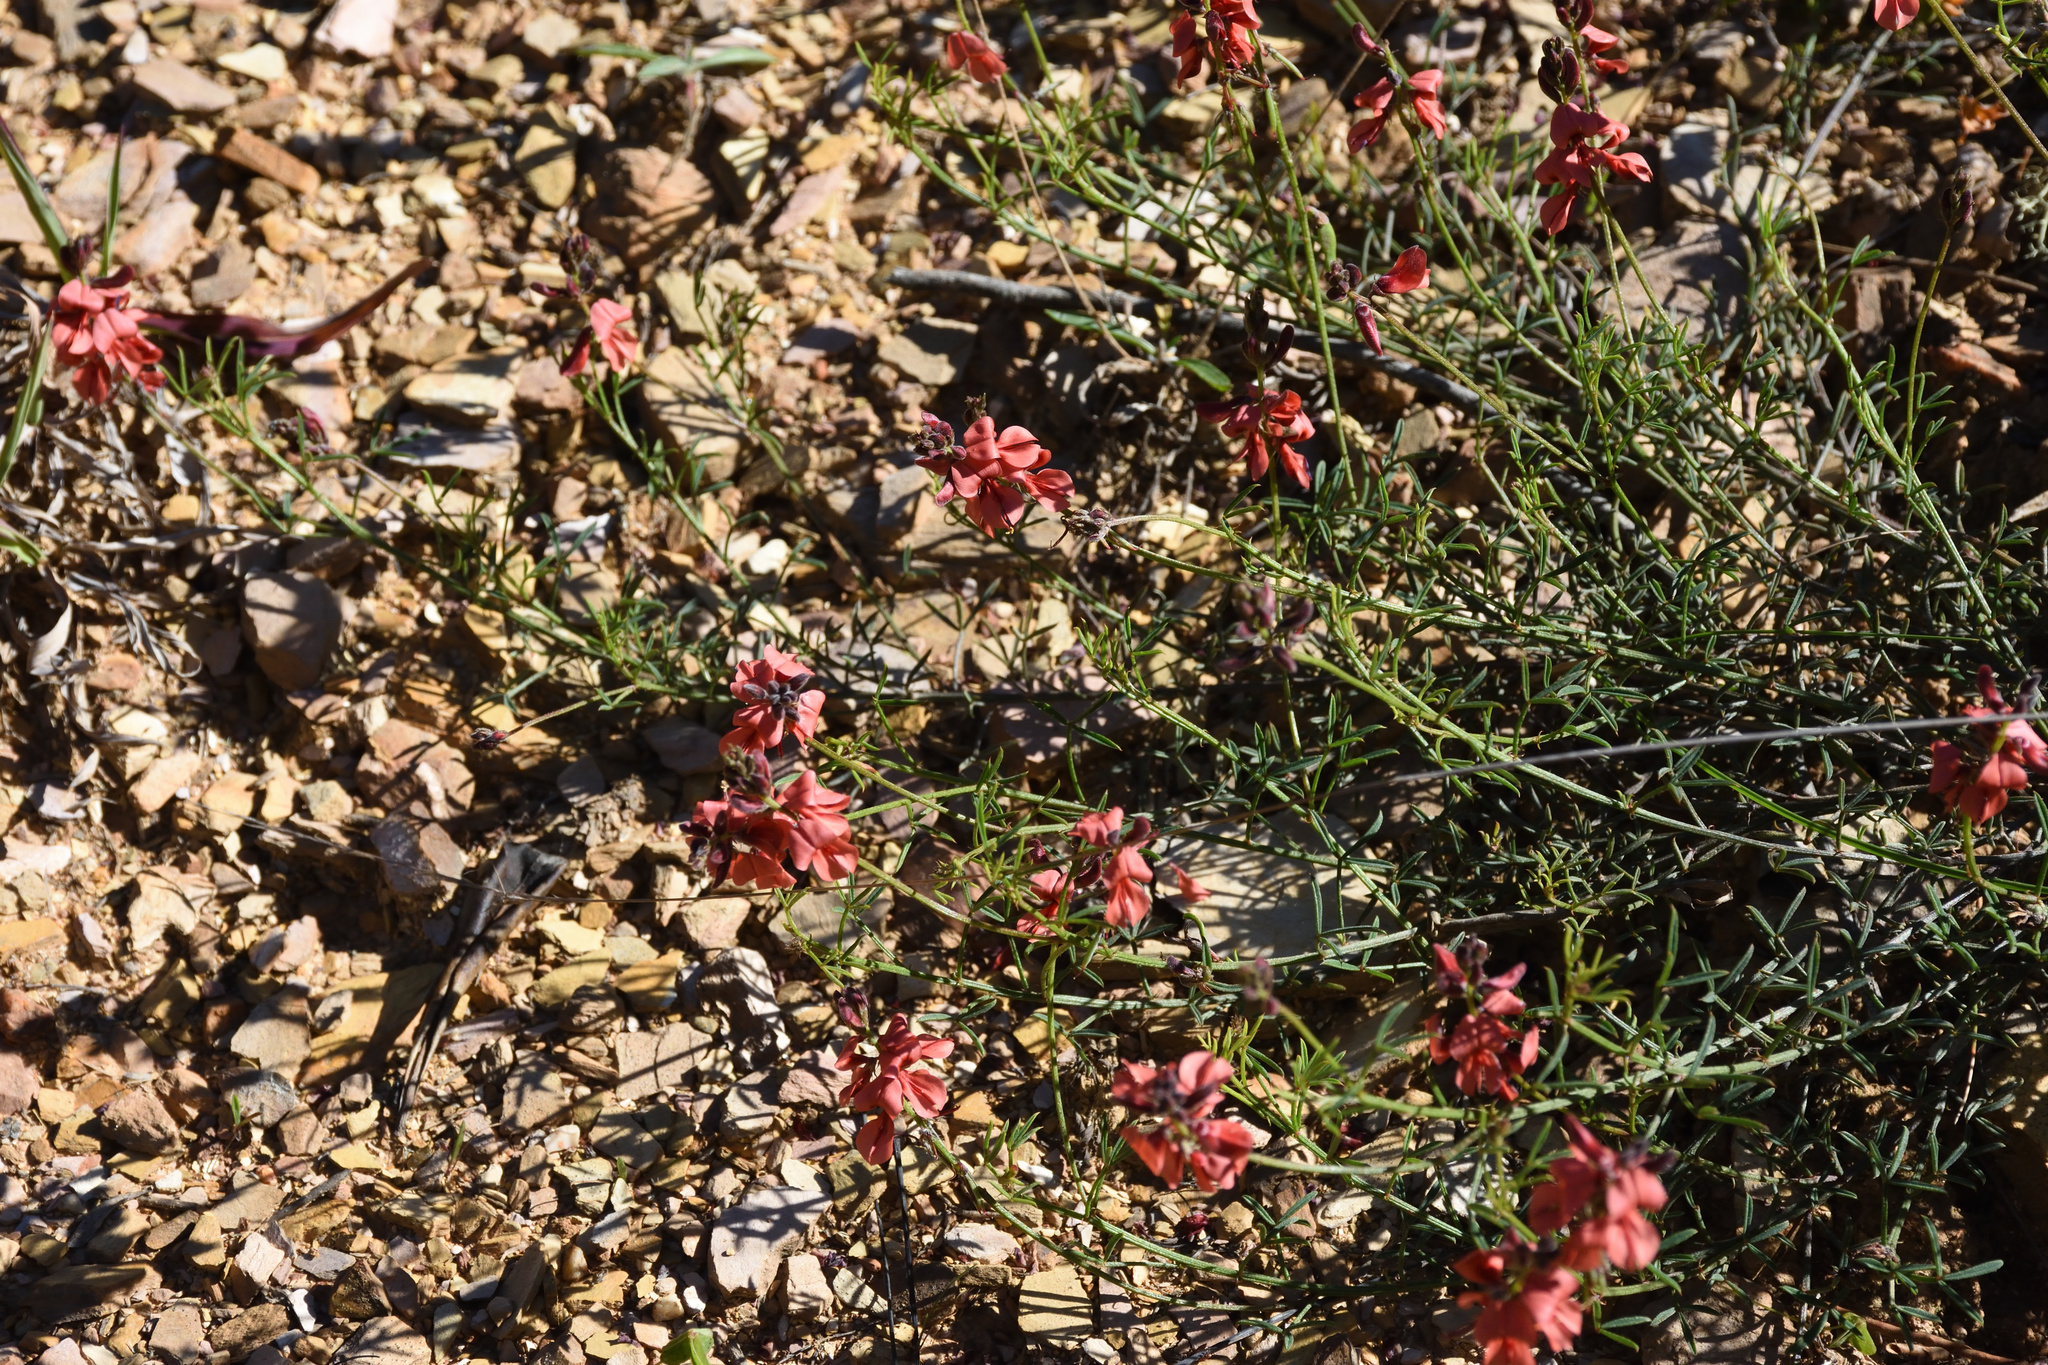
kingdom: Plantae
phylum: Tracheophyta
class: Magnoliopsida
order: Fabales
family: Fabaceae
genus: Indigofera
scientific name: Indigofera heterophylla
